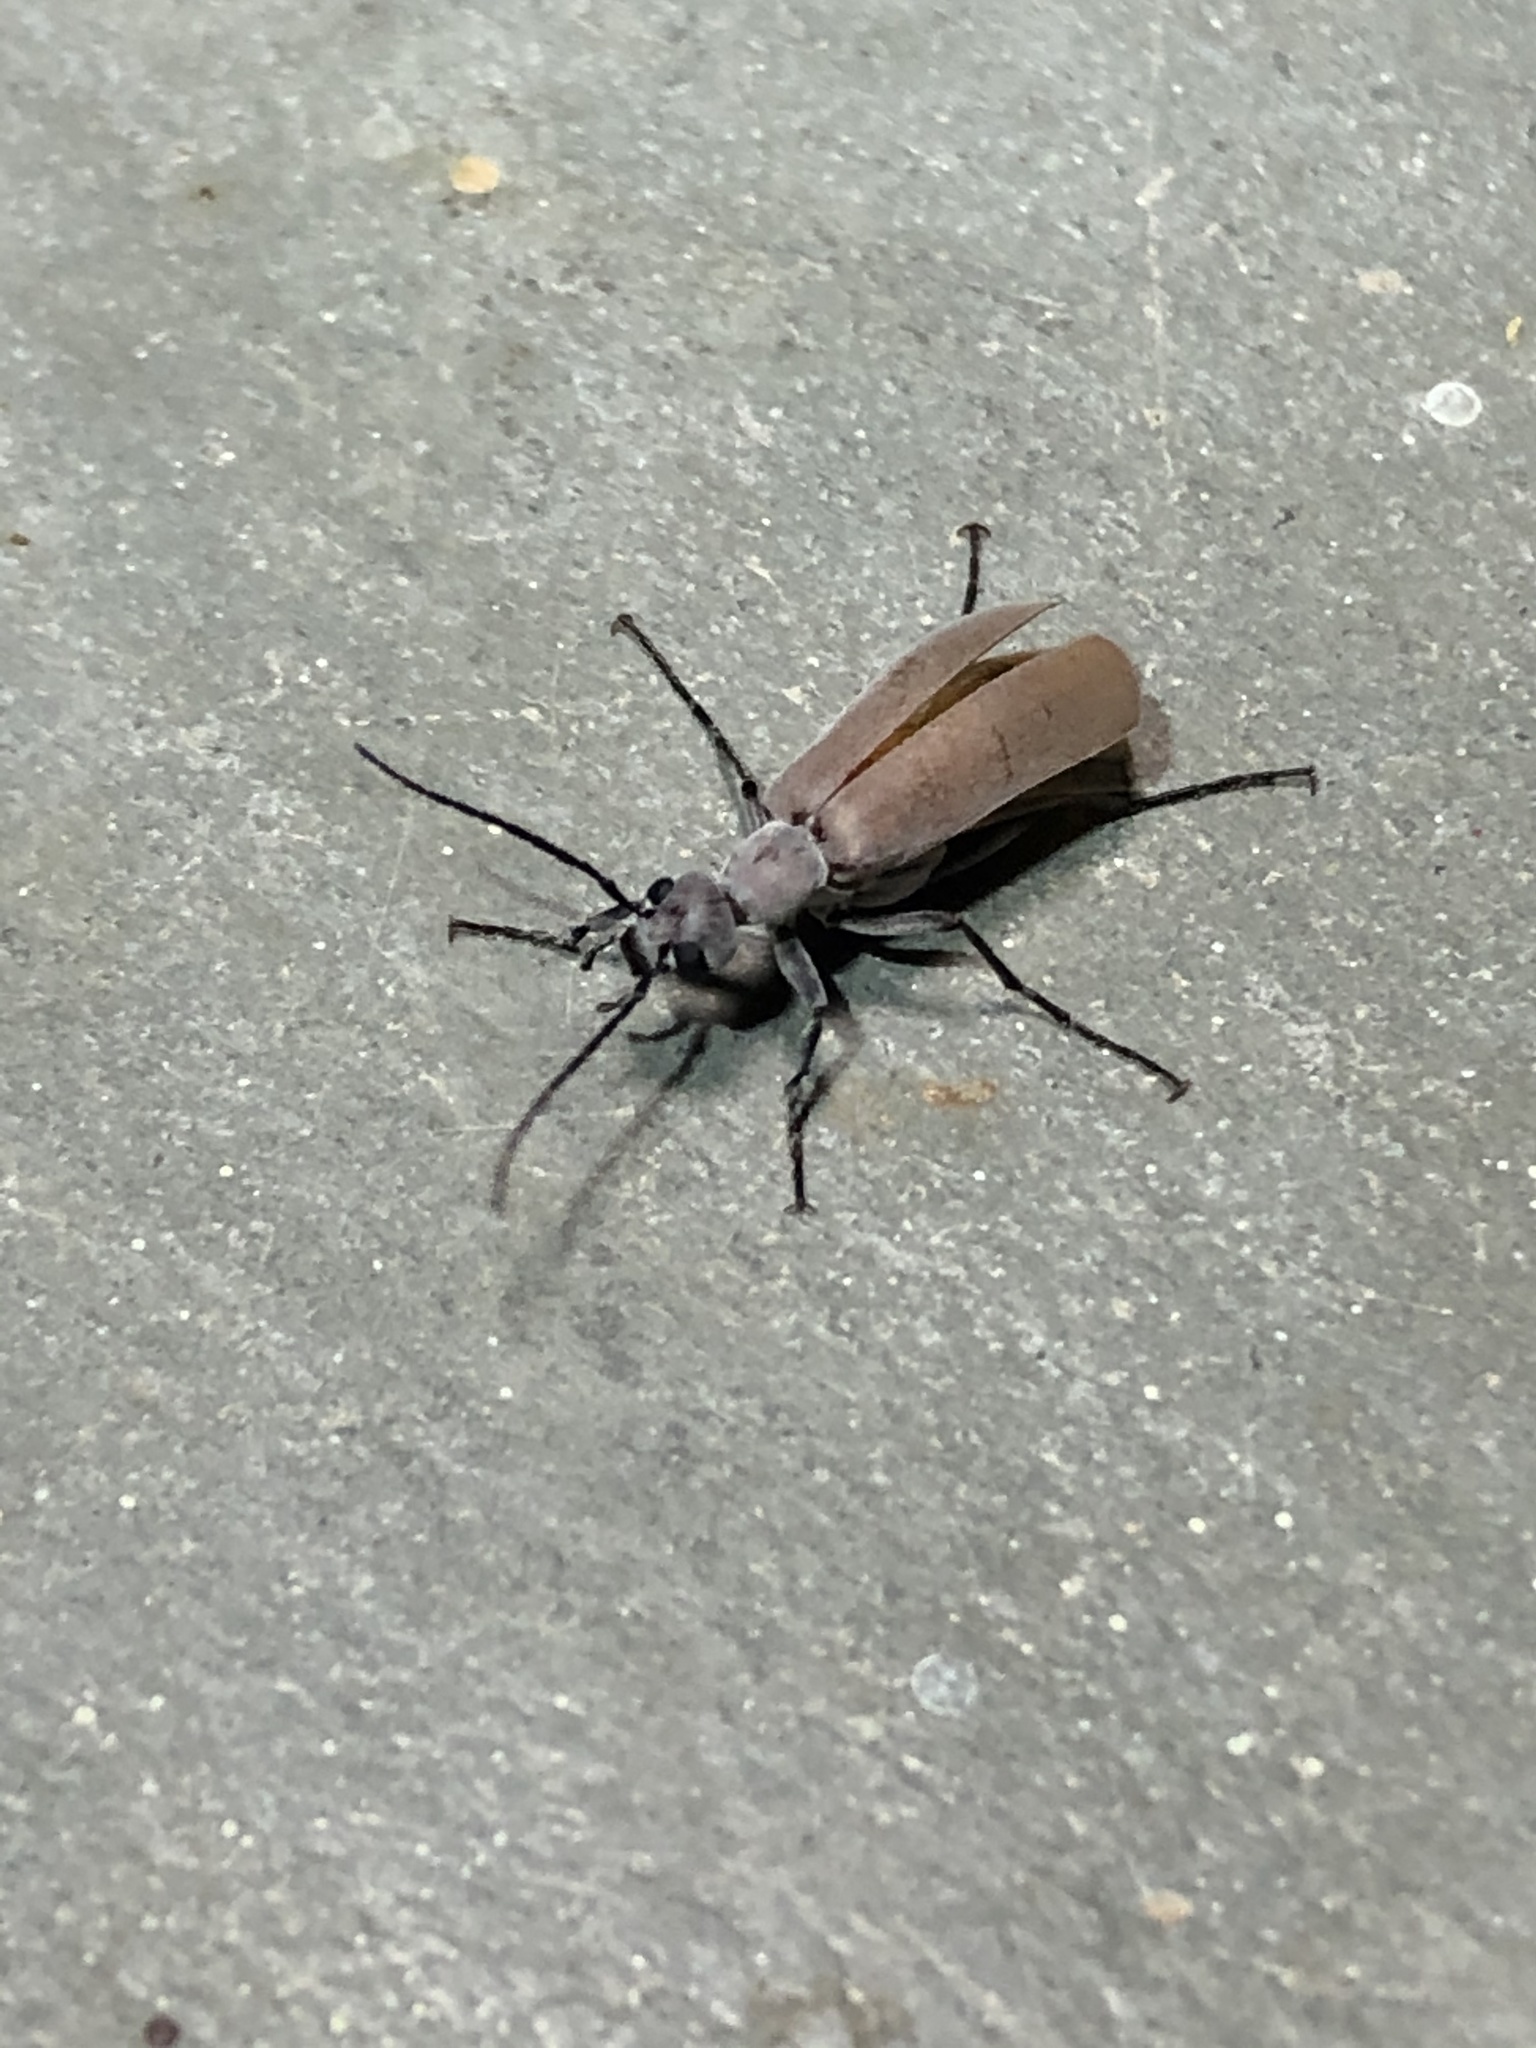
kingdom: Animalia
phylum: Arthropoda
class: Insecta
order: Coleoptera
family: Meloidae
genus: Epicauta
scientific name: Epicauta lauta
